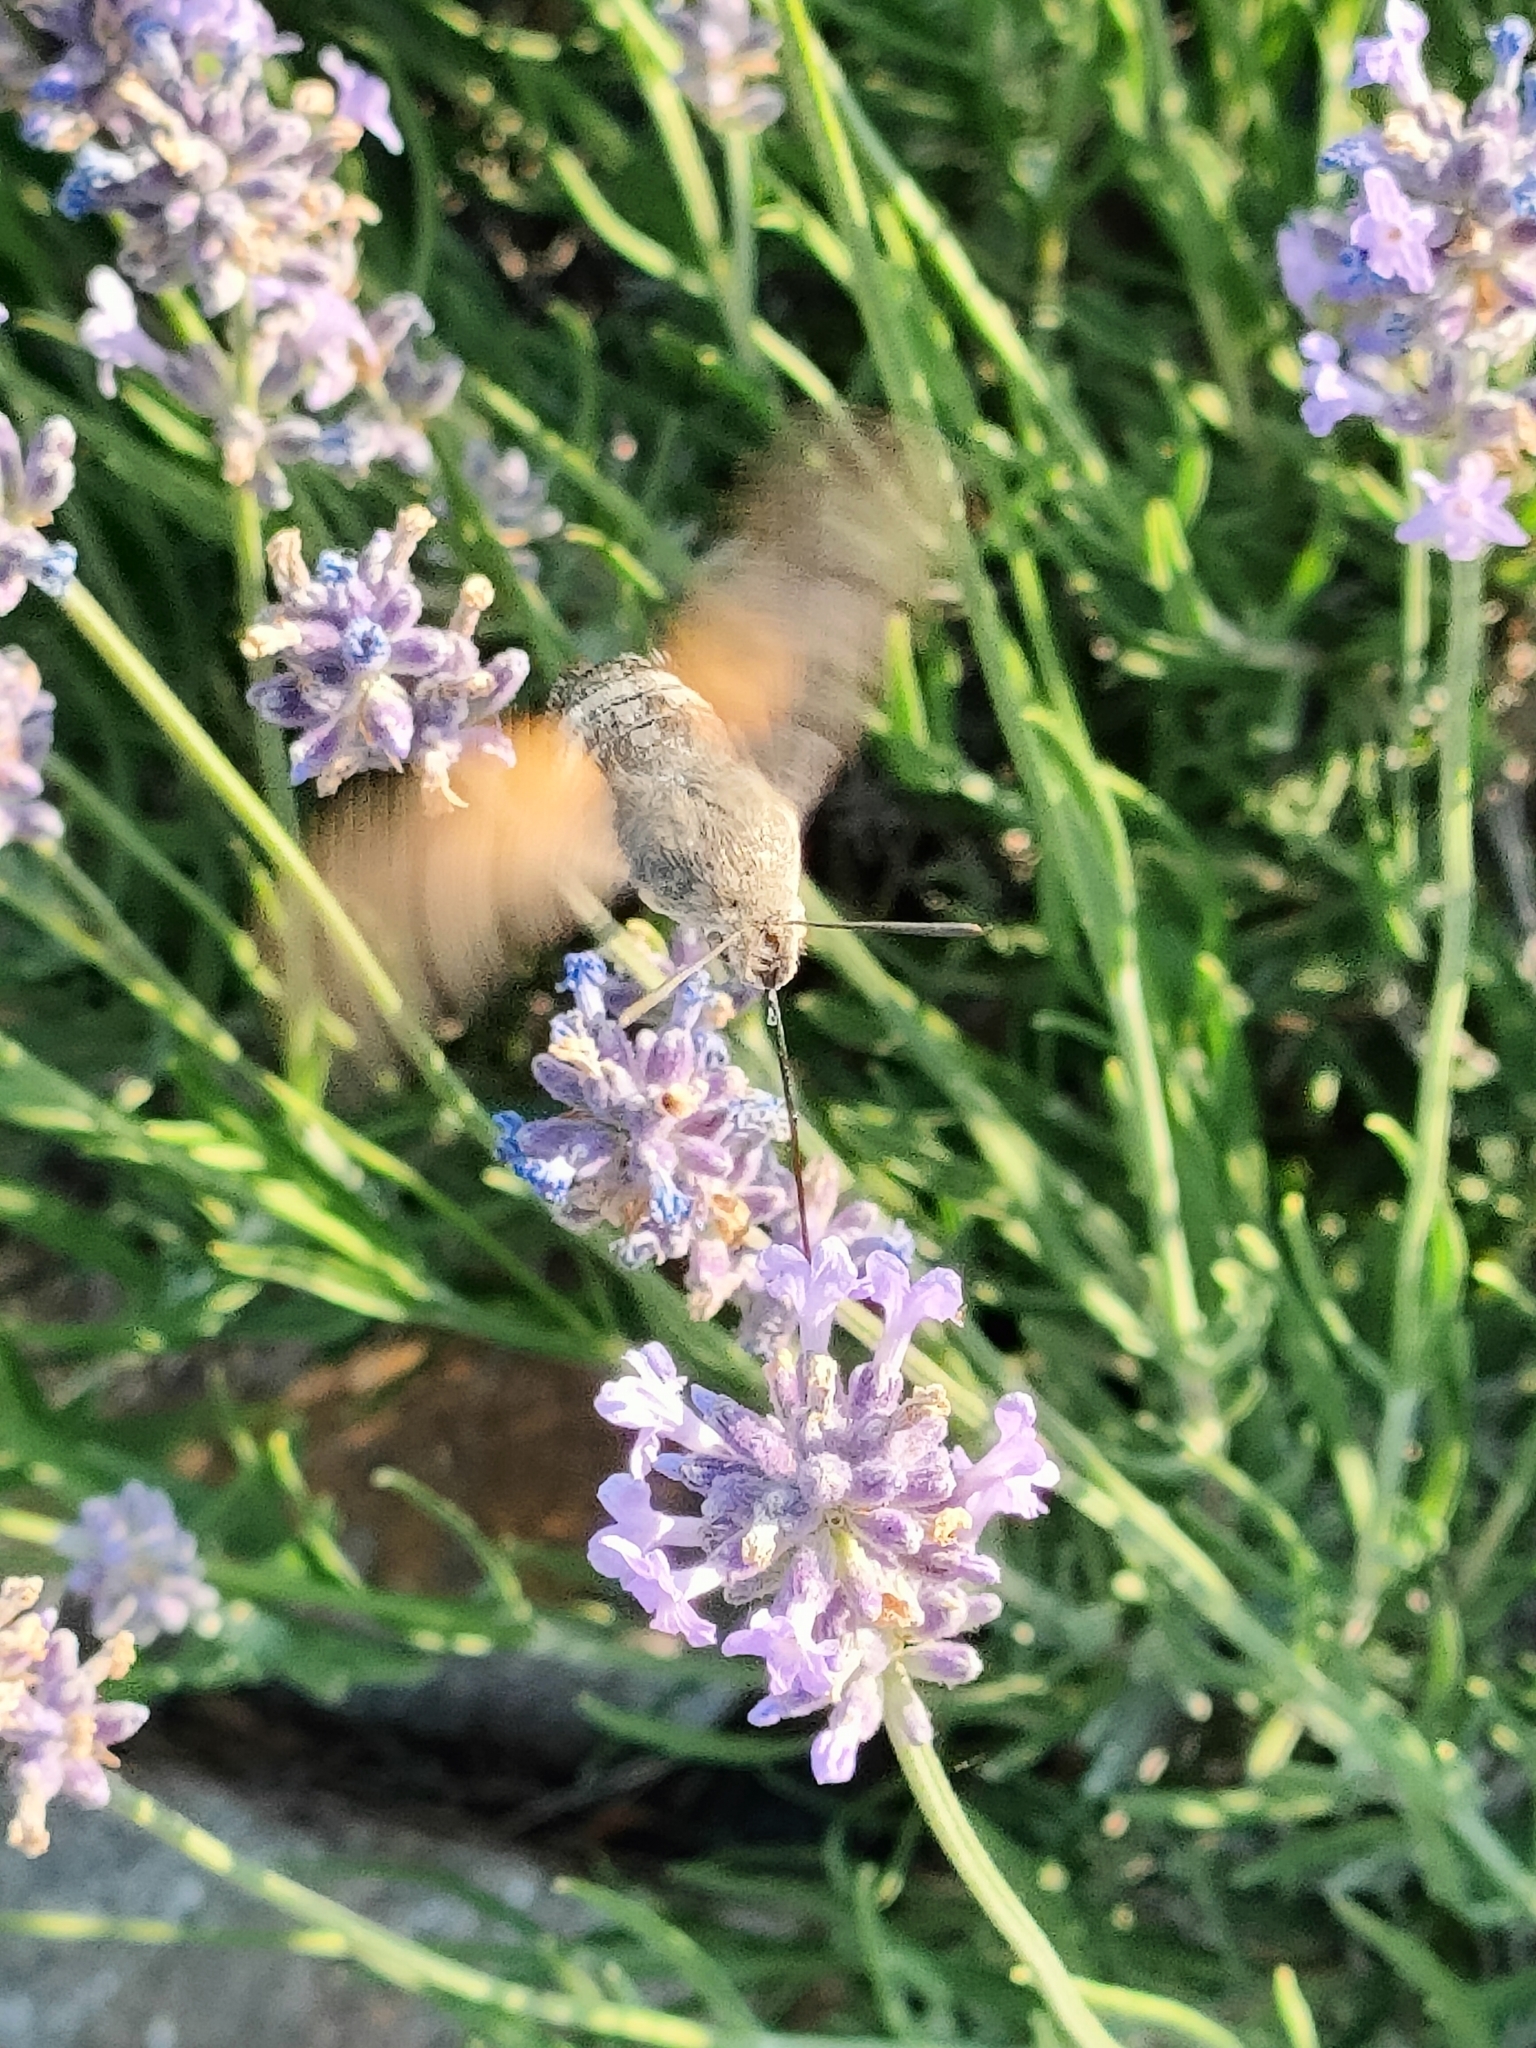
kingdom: Animalia
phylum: Arthropoda
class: Insecta
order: Lepidoptera
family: Sphingidae
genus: Macroglossum
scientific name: Macroglossum stellatarum
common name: Humming-bird hawk-moth
